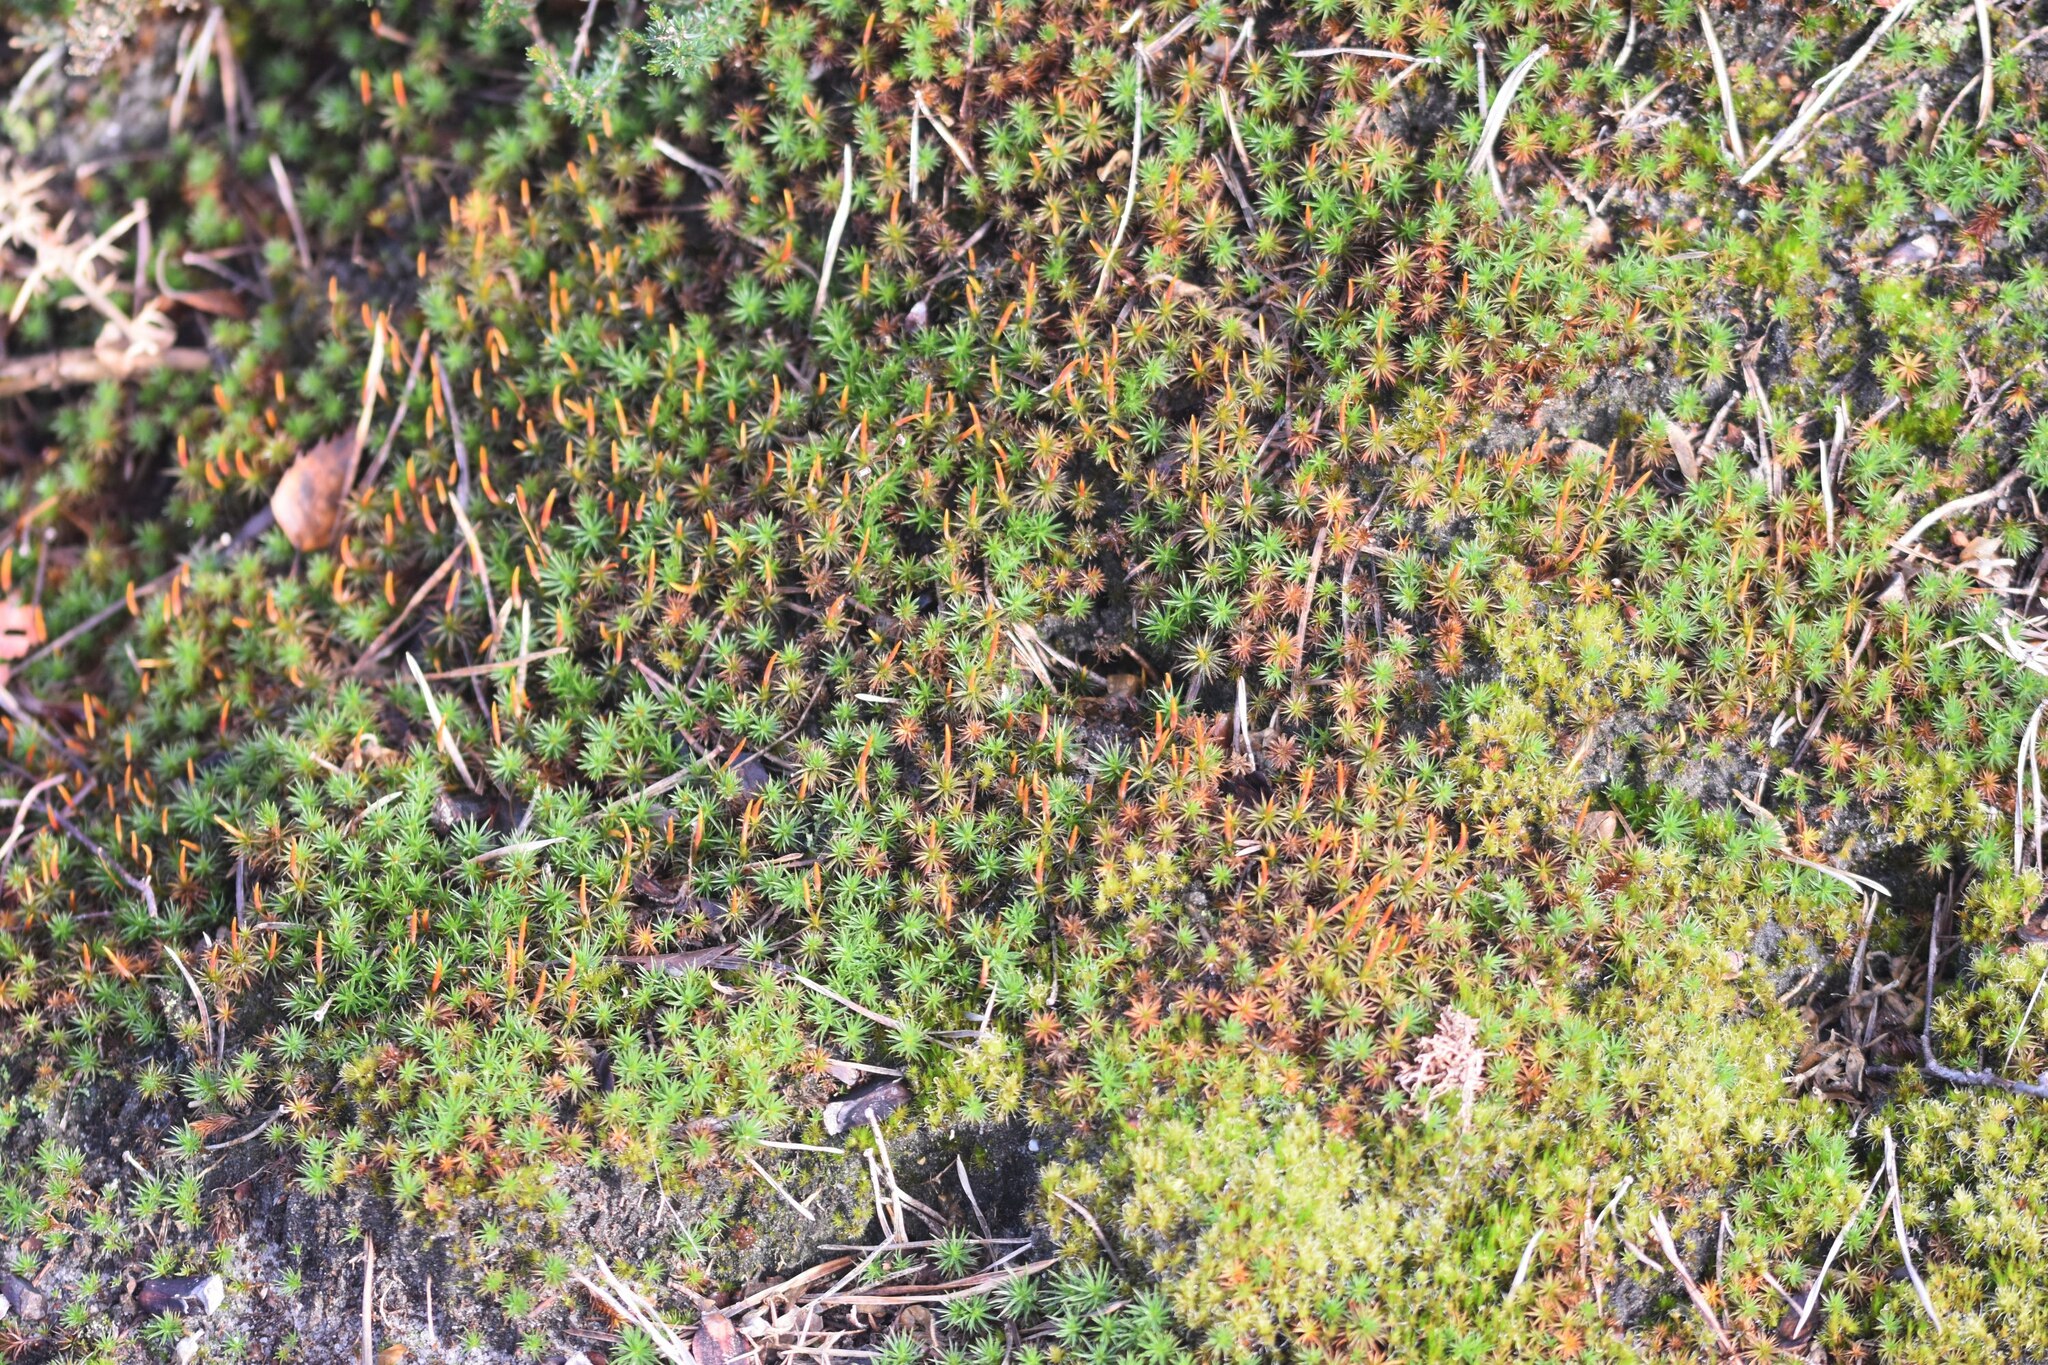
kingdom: Plantae
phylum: Bryophyta
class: Polytrichopsida
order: Polytrichales
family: Polytrichaceae
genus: Polytrichum
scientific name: Polytrichum juniperinum
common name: Juniper haircap moss
